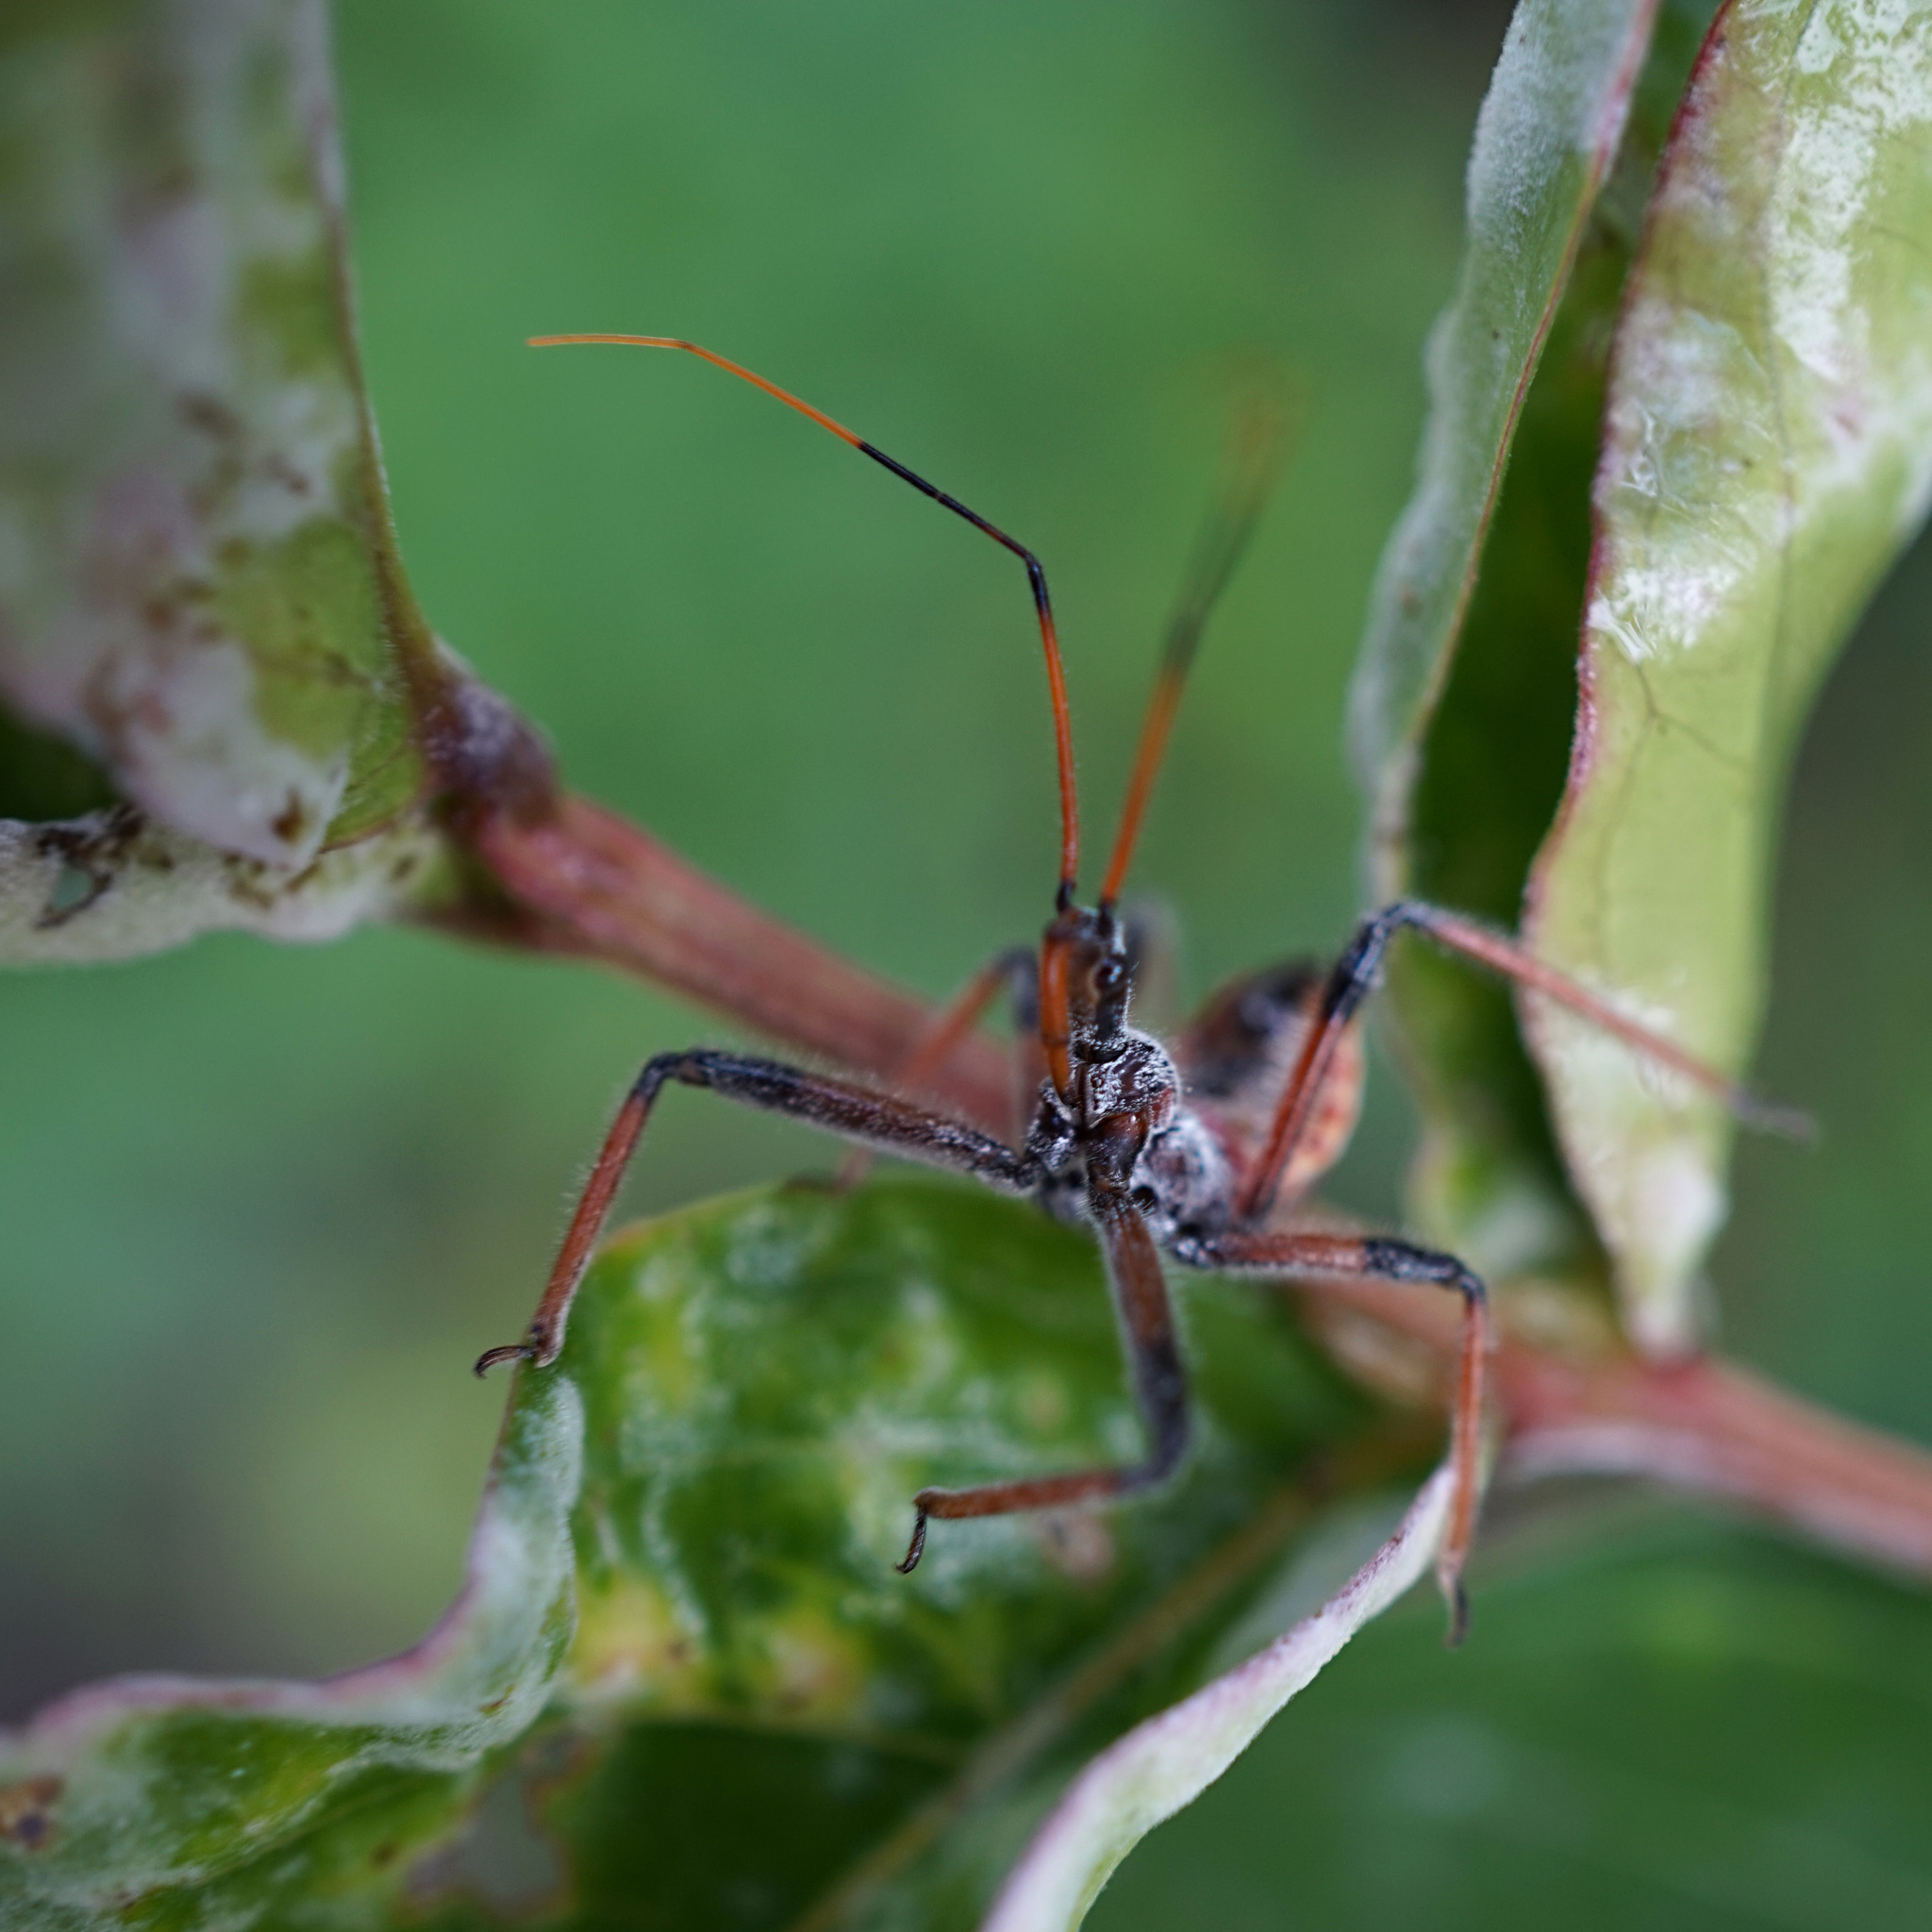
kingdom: Animalia
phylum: Arthropoda
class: Insecta
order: Hemiptera
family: Reduviidae
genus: Arilus
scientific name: Arilus cristatus
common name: North american wheel bug
